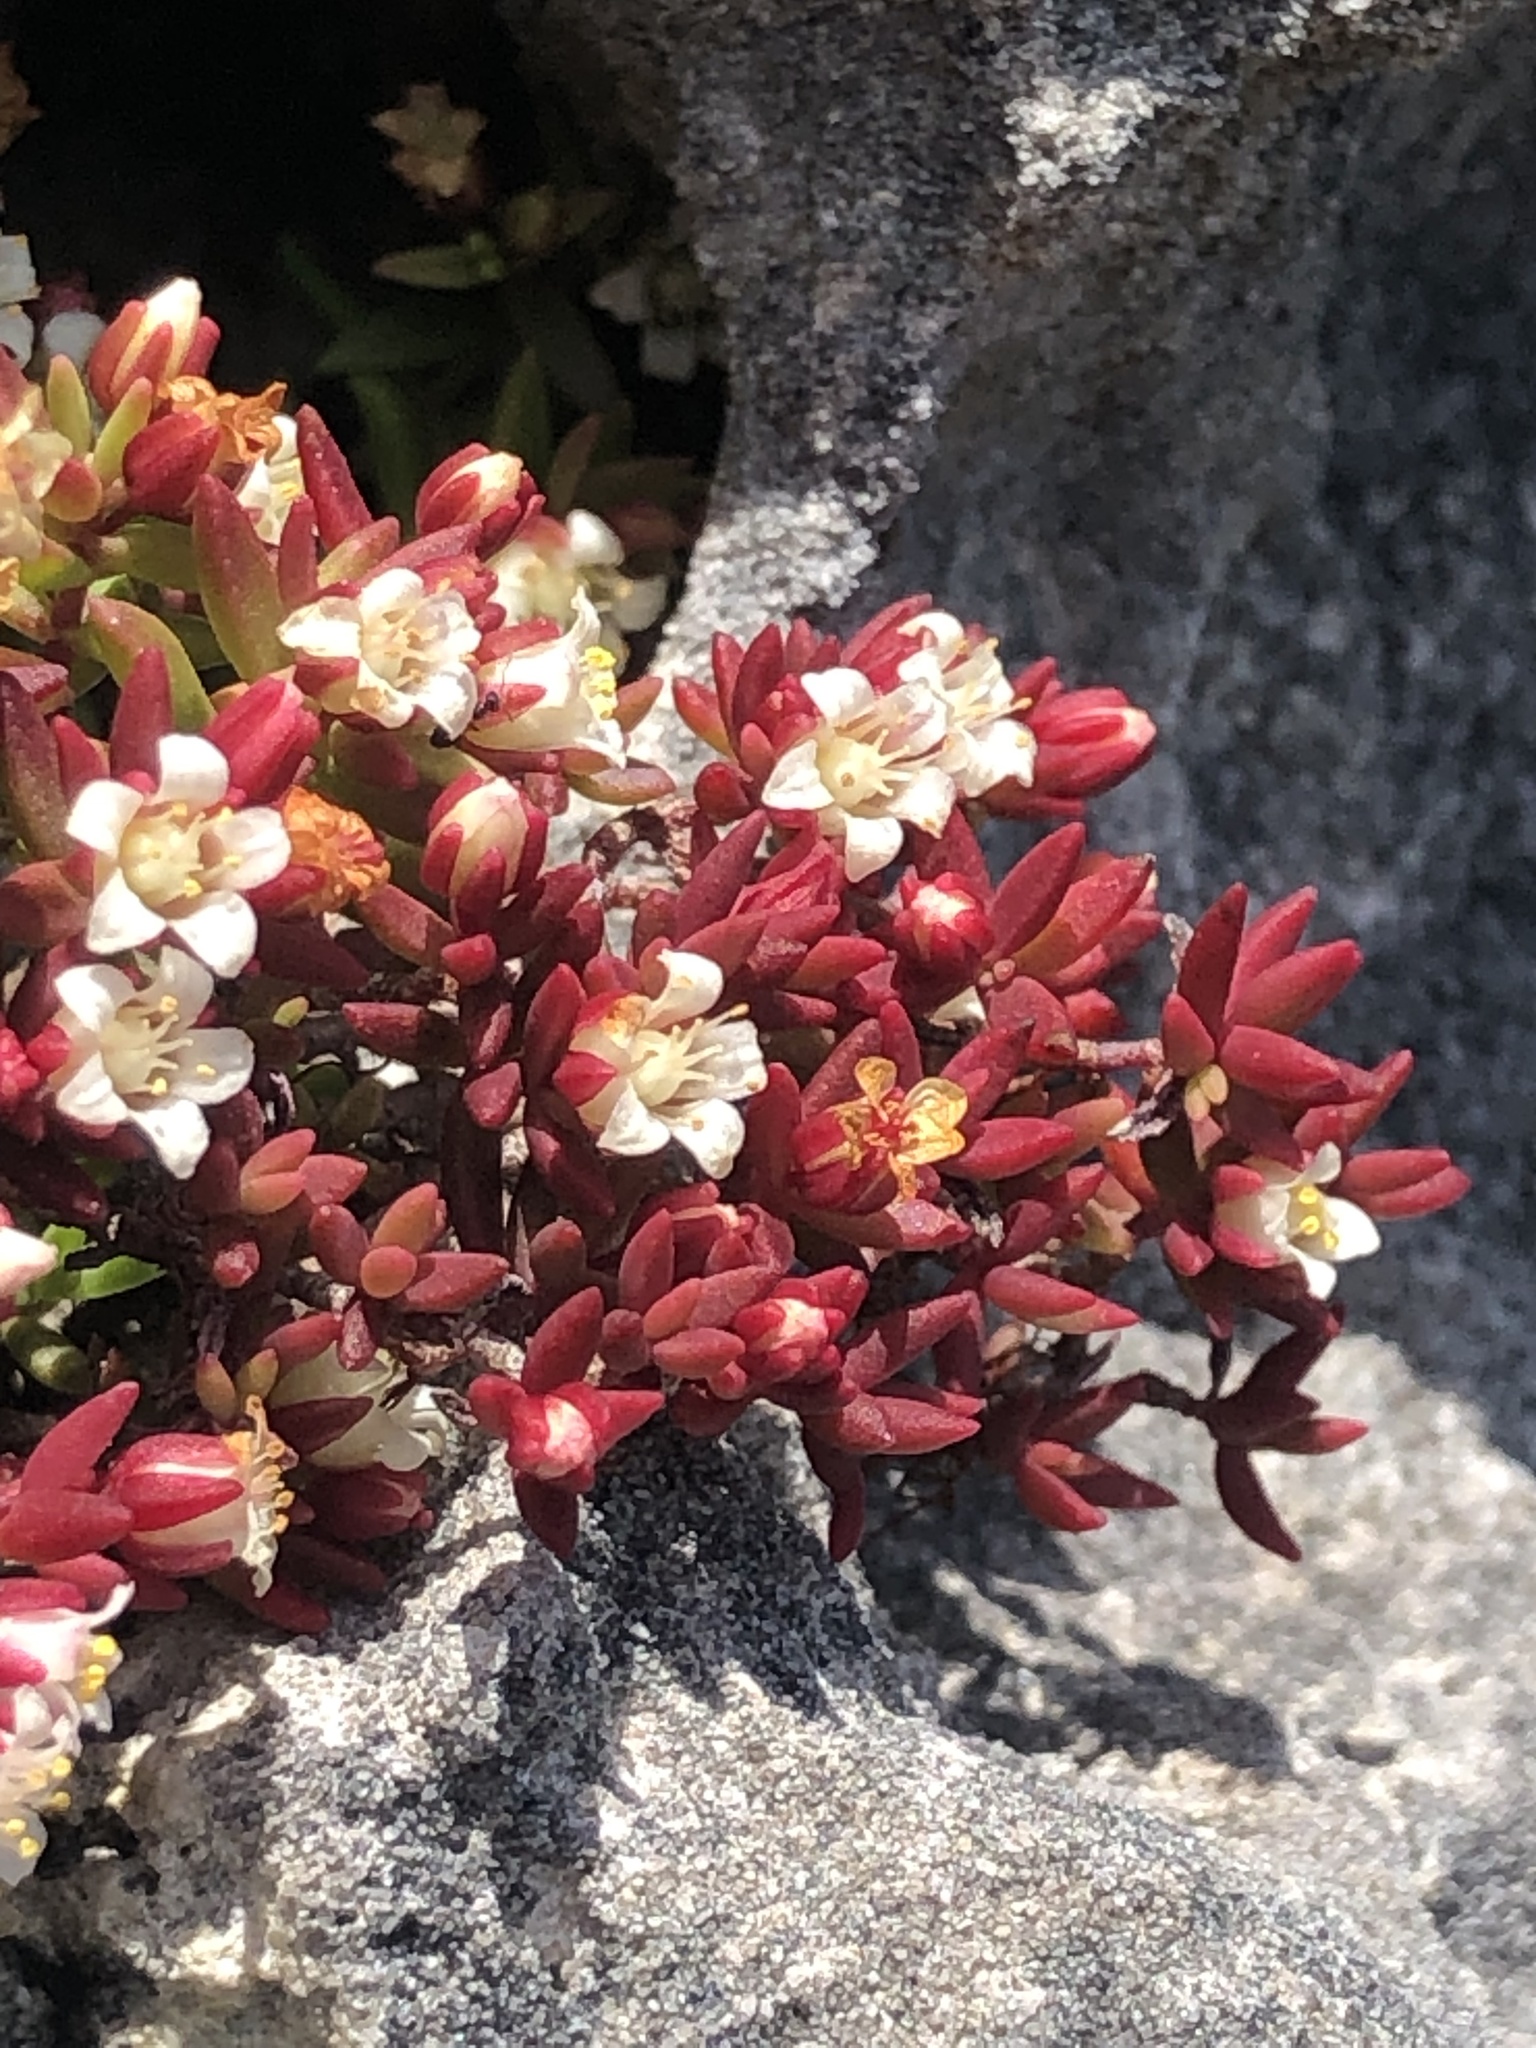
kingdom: Plantae
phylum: Tracheophyta
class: Magnoliopsida
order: Saxifragales
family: Crassulaceae
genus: Crassula
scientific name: Crassula expansa
